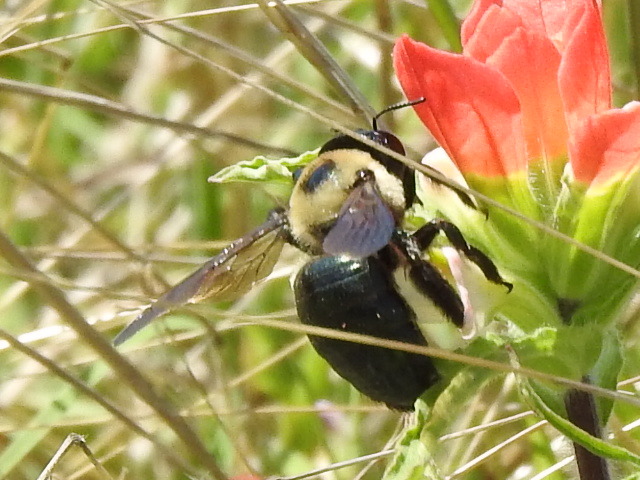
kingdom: Animalia
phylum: Arthropoda
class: Insecta
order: Hymenoptera
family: Apidae
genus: Xylocopa
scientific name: Xylocopa virginica
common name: Carpenter bee
